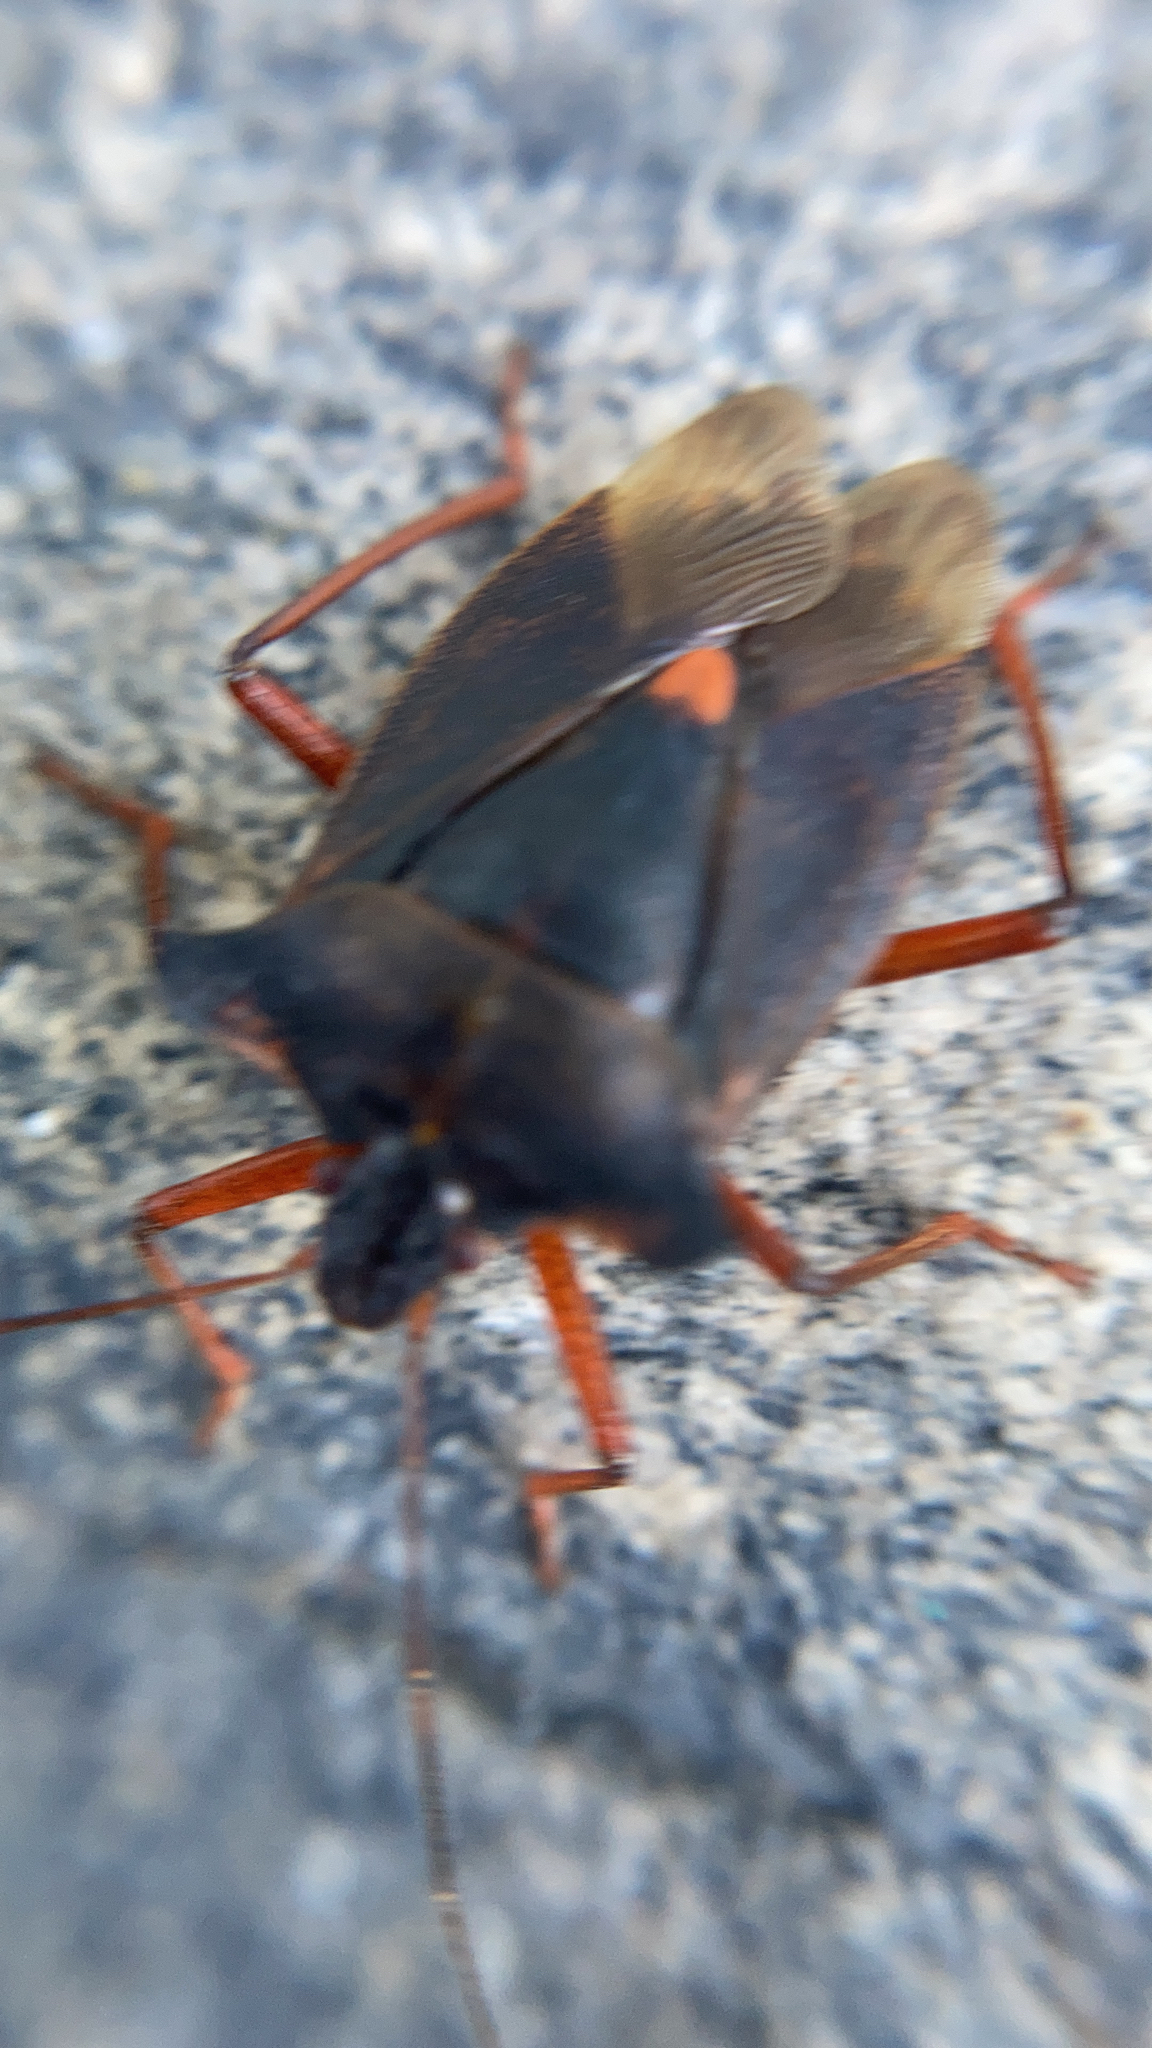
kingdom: Animalia
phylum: Arthropoda
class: Insecta
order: Hemiptera
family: Pentatomidae
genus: Pentatoma
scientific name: Pentatoma rufipes
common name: Forest bug
